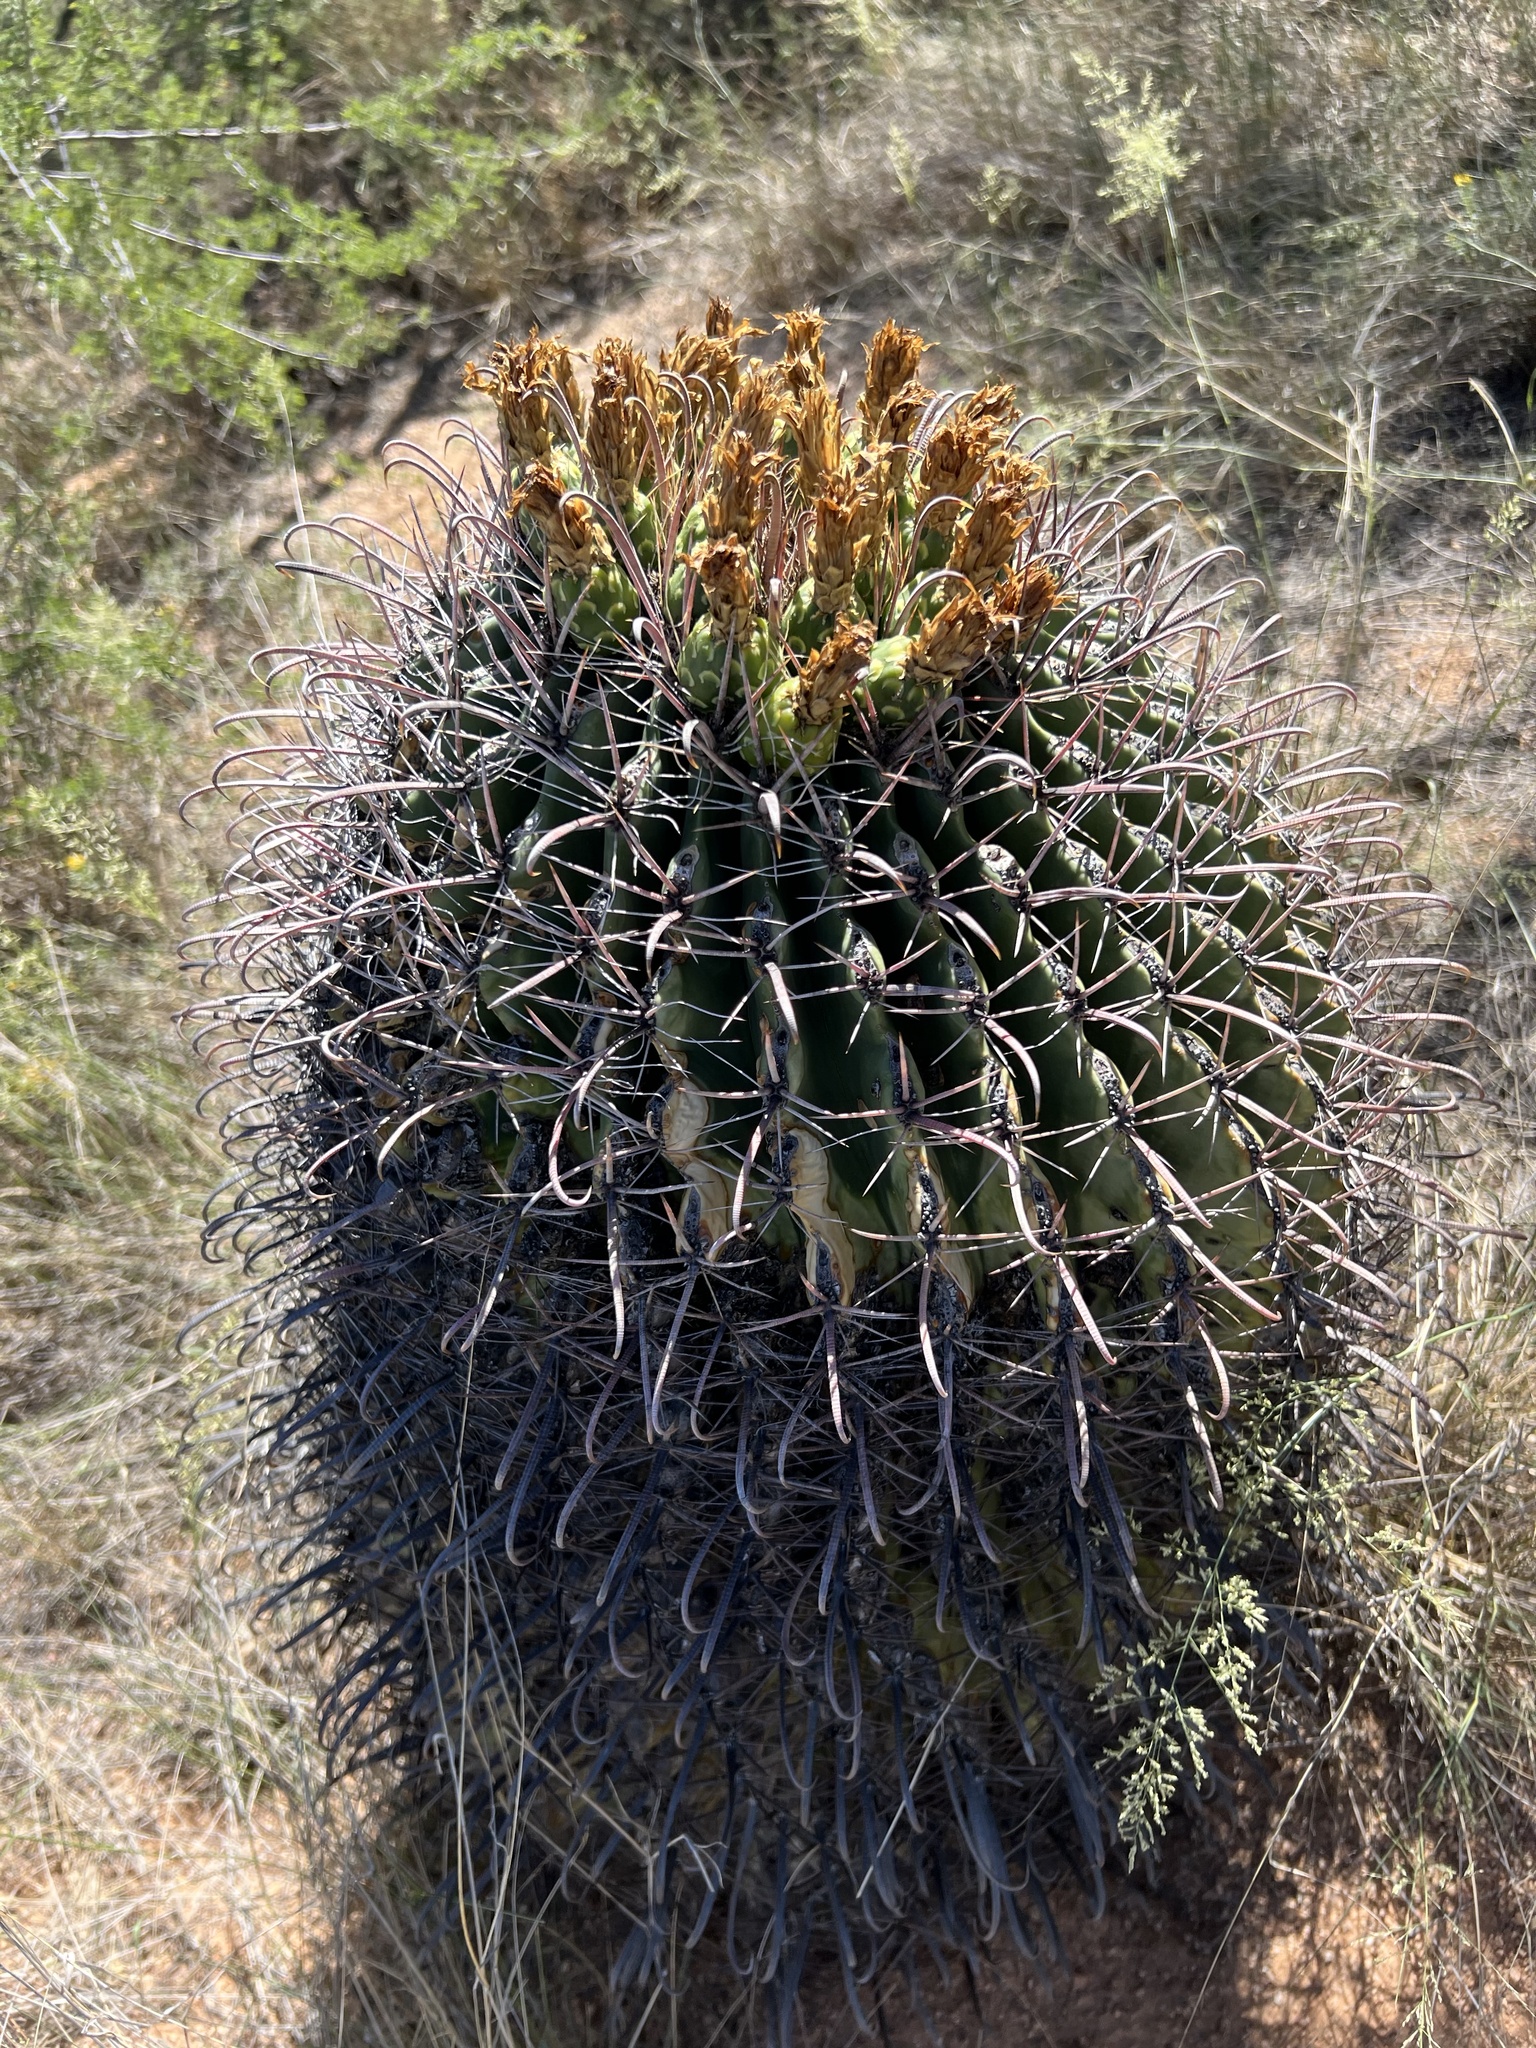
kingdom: Plantae
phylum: Tracheophyta
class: Magnoliopsida
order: Caryophyllales
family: Cactaceae
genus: Ferocactus
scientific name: Ferocactus wislizeni
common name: Candy barrel cactus
